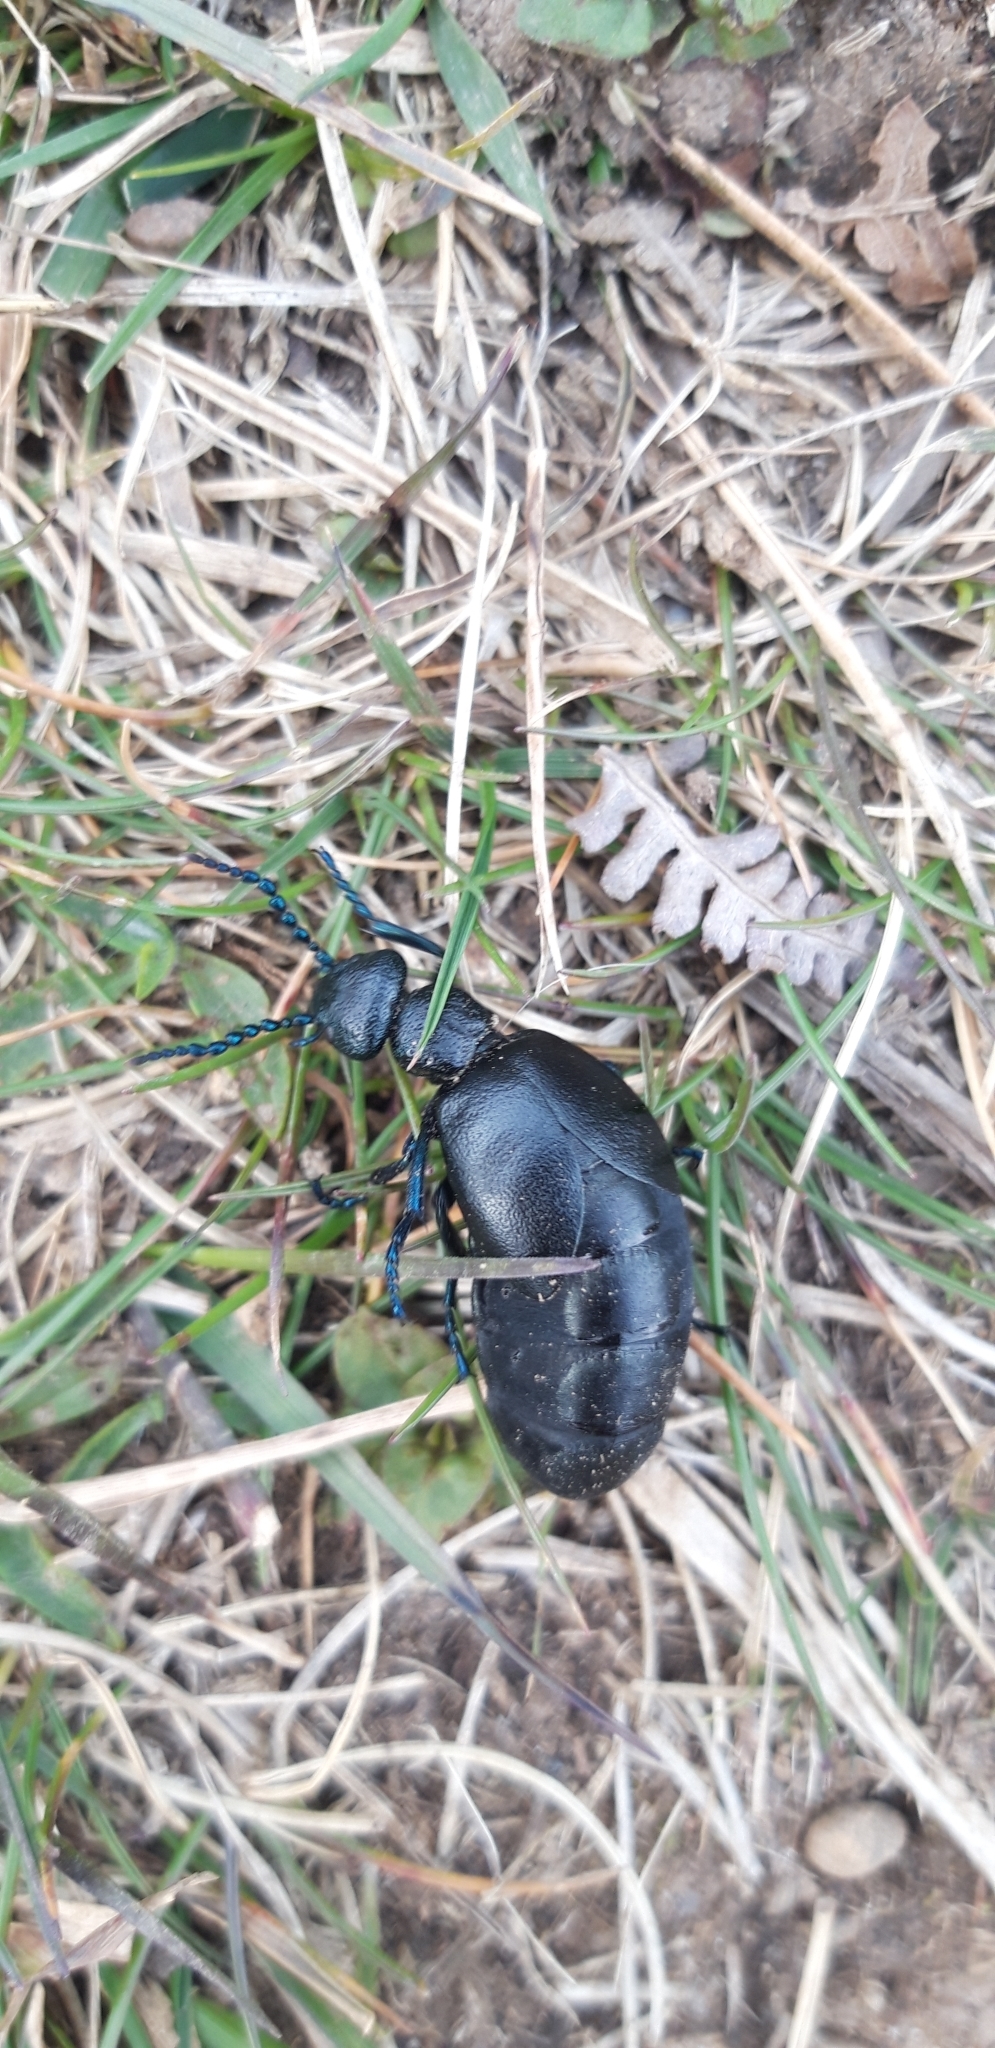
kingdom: Animalia
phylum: Arthropoda
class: Insecta
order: Coleoptera
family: Meloidae
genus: Meloe
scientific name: Meloe proscarabaeus
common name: Black oil-beetle
